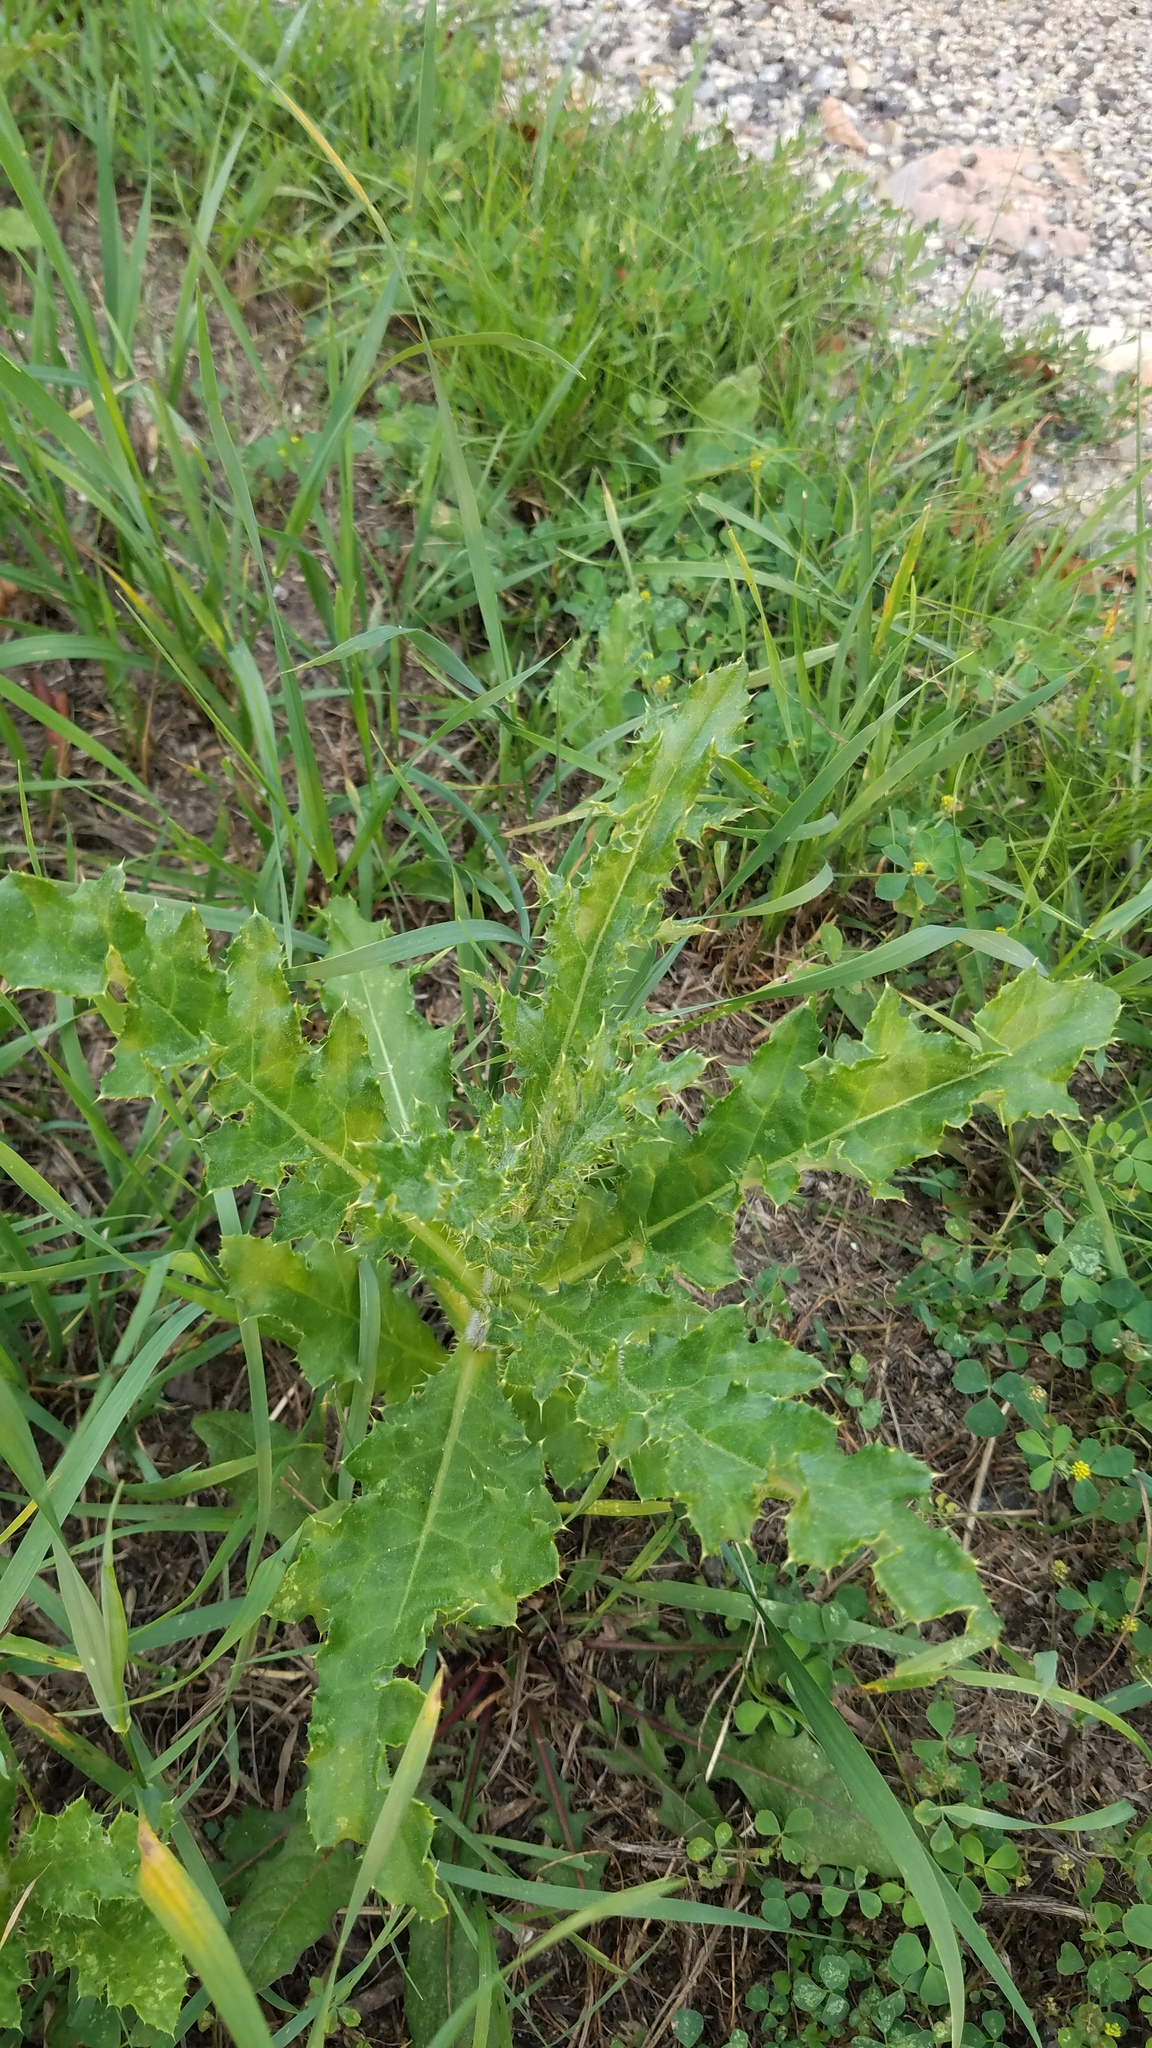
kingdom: Plantae
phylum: Tracheophyta
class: Magnoliopsida
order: Asterales
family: Asteraceae
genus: Cirsium
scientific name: Cirsium arvense
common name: Creeping thistle
